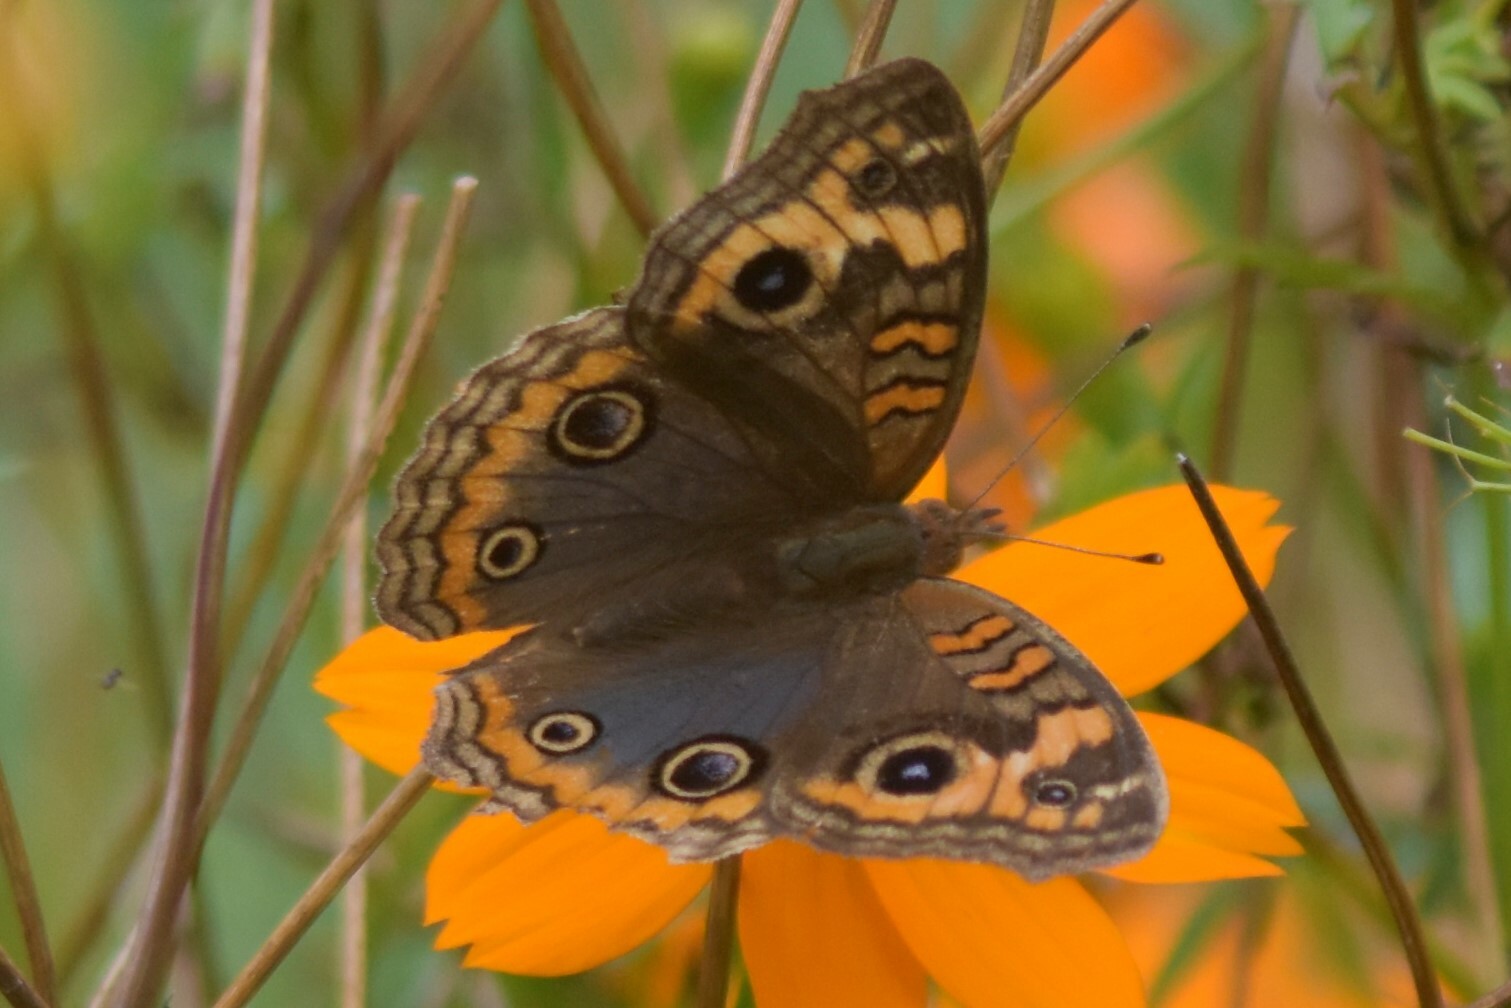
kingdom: Animalia
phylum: Arthropoda
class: Insecta
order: Lepidoptera
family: Nymphalidae
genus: Junonia
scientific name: Junonia lavinia
